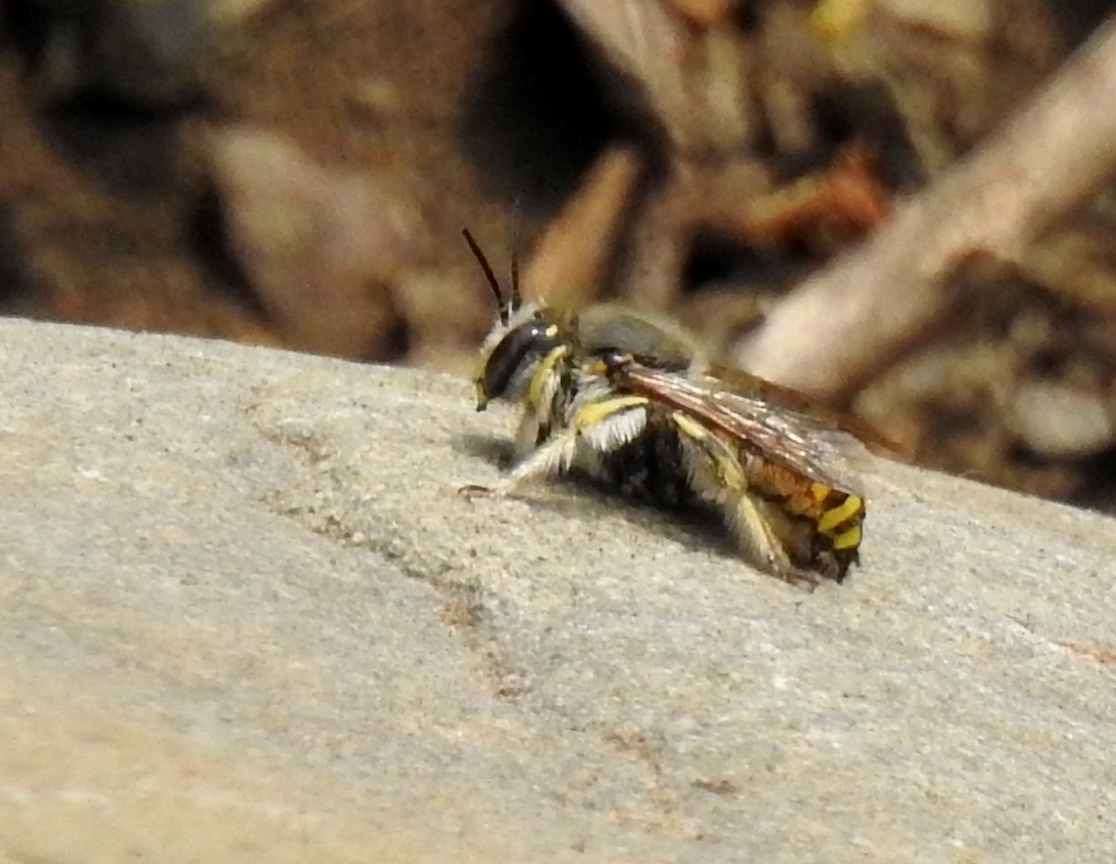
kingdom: Animalia
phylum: Arthropoda
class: Insecta
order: Hymenoptera
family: Megachilidae
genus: Anthidium
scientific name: Anthidium manicatum
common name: Wool carder bee
